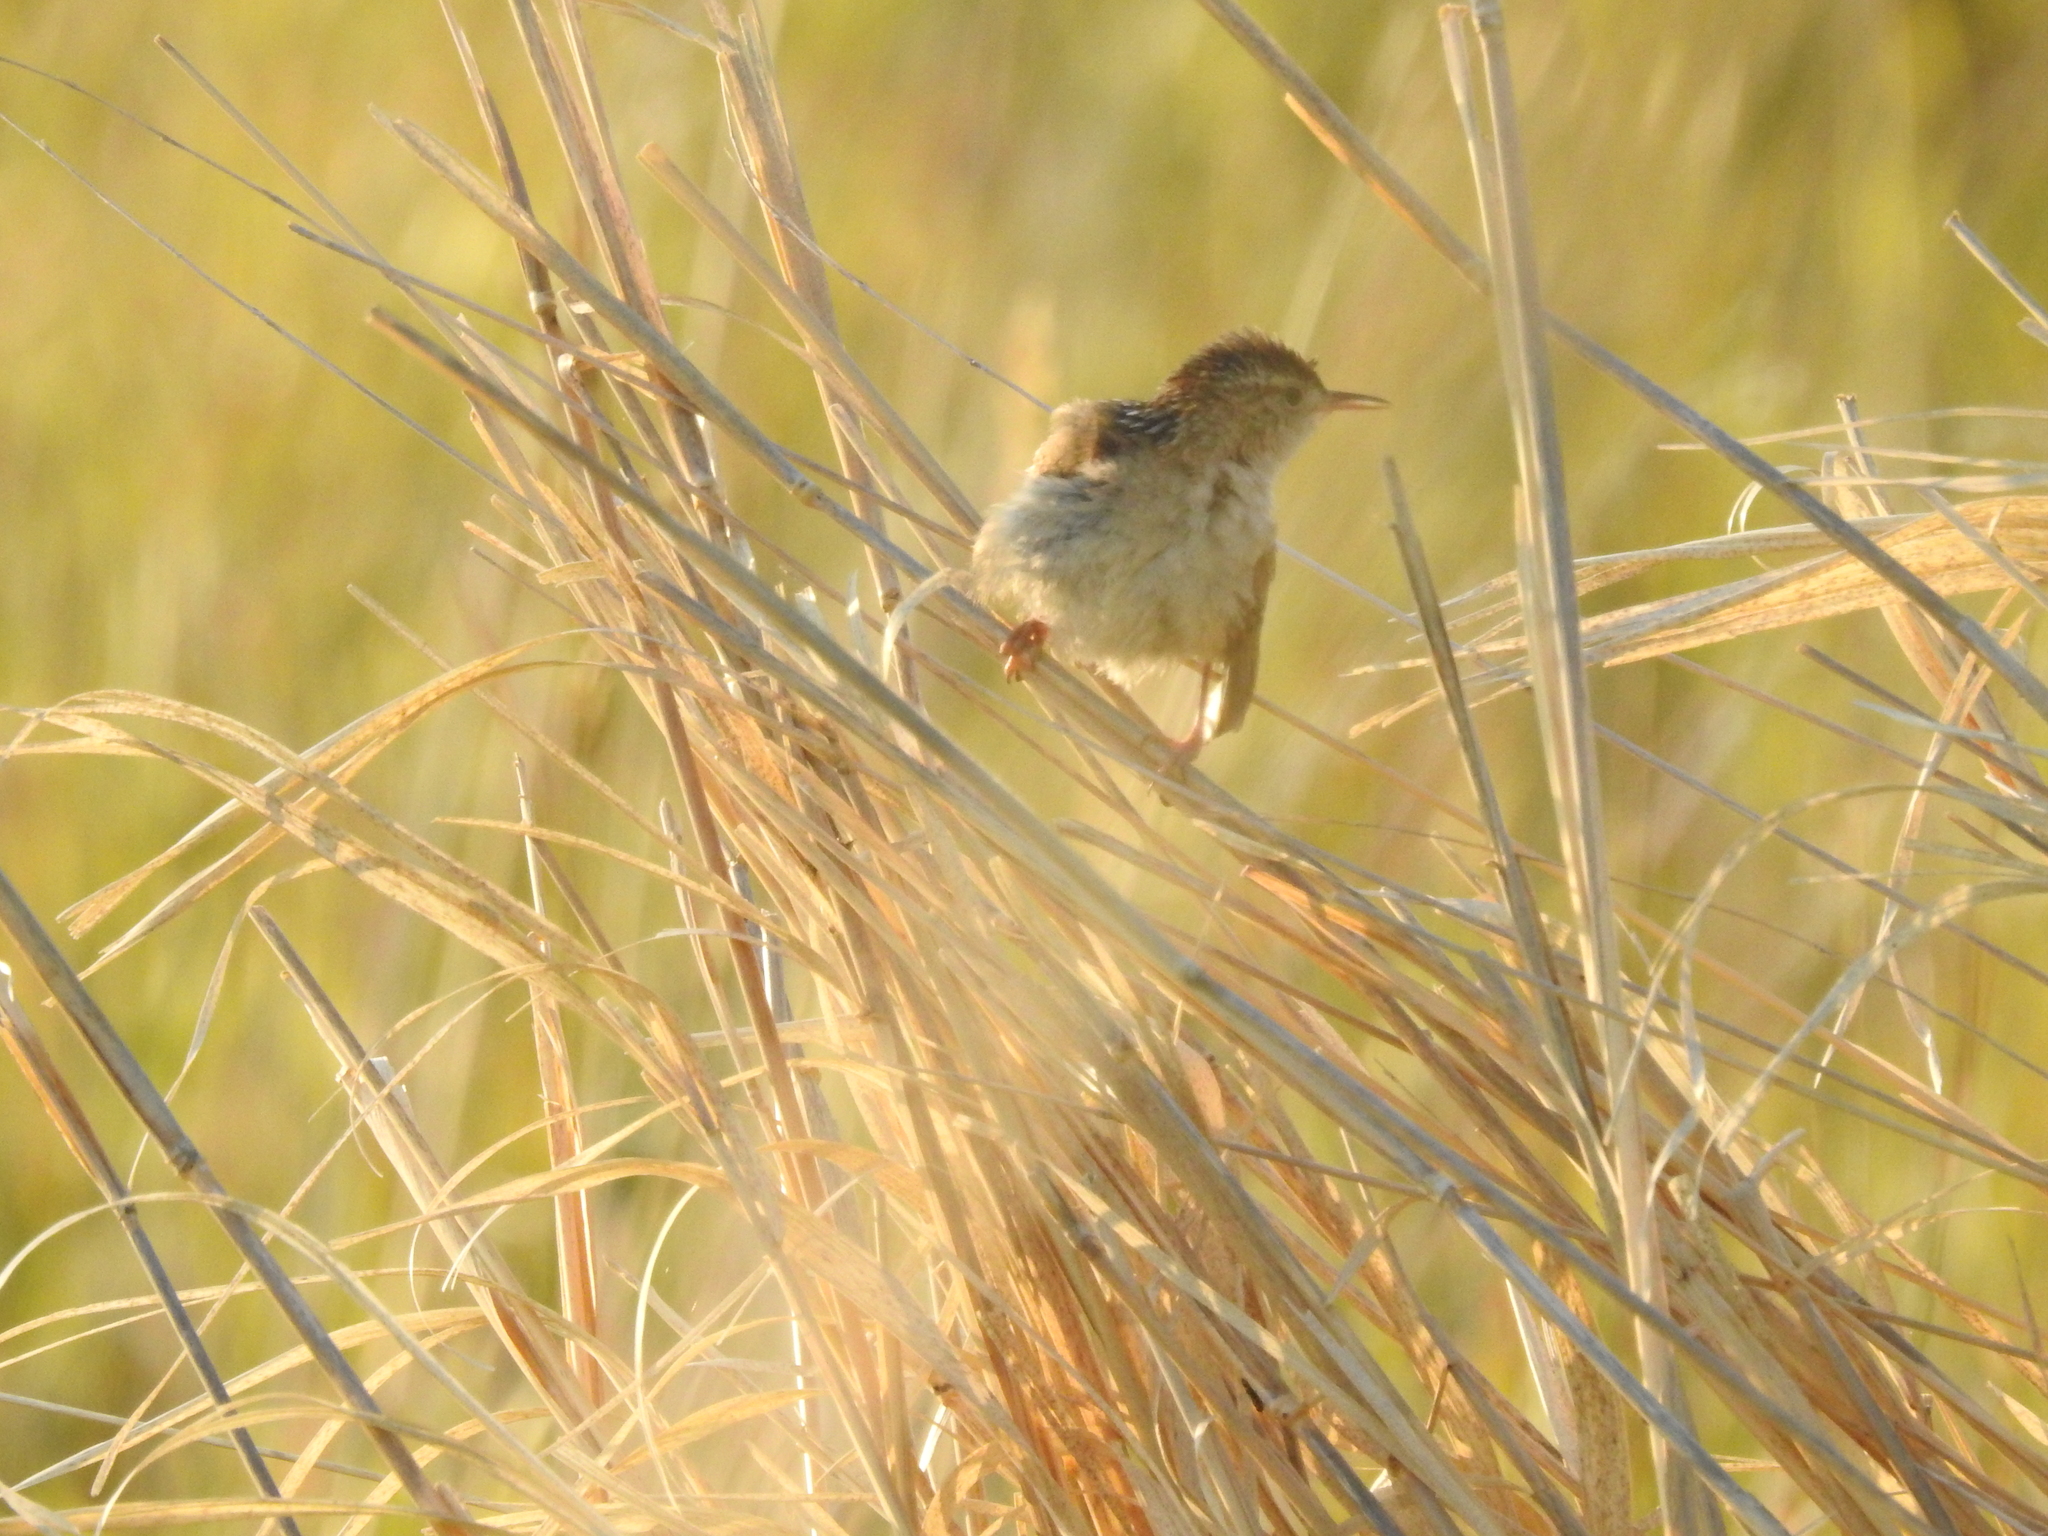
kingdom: Animalia
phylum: Chordata
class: Aves
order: Passeriformes
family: Troglodytidae
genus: Cistothorus
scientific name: Cistothorus palustris
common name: Marsh wren
